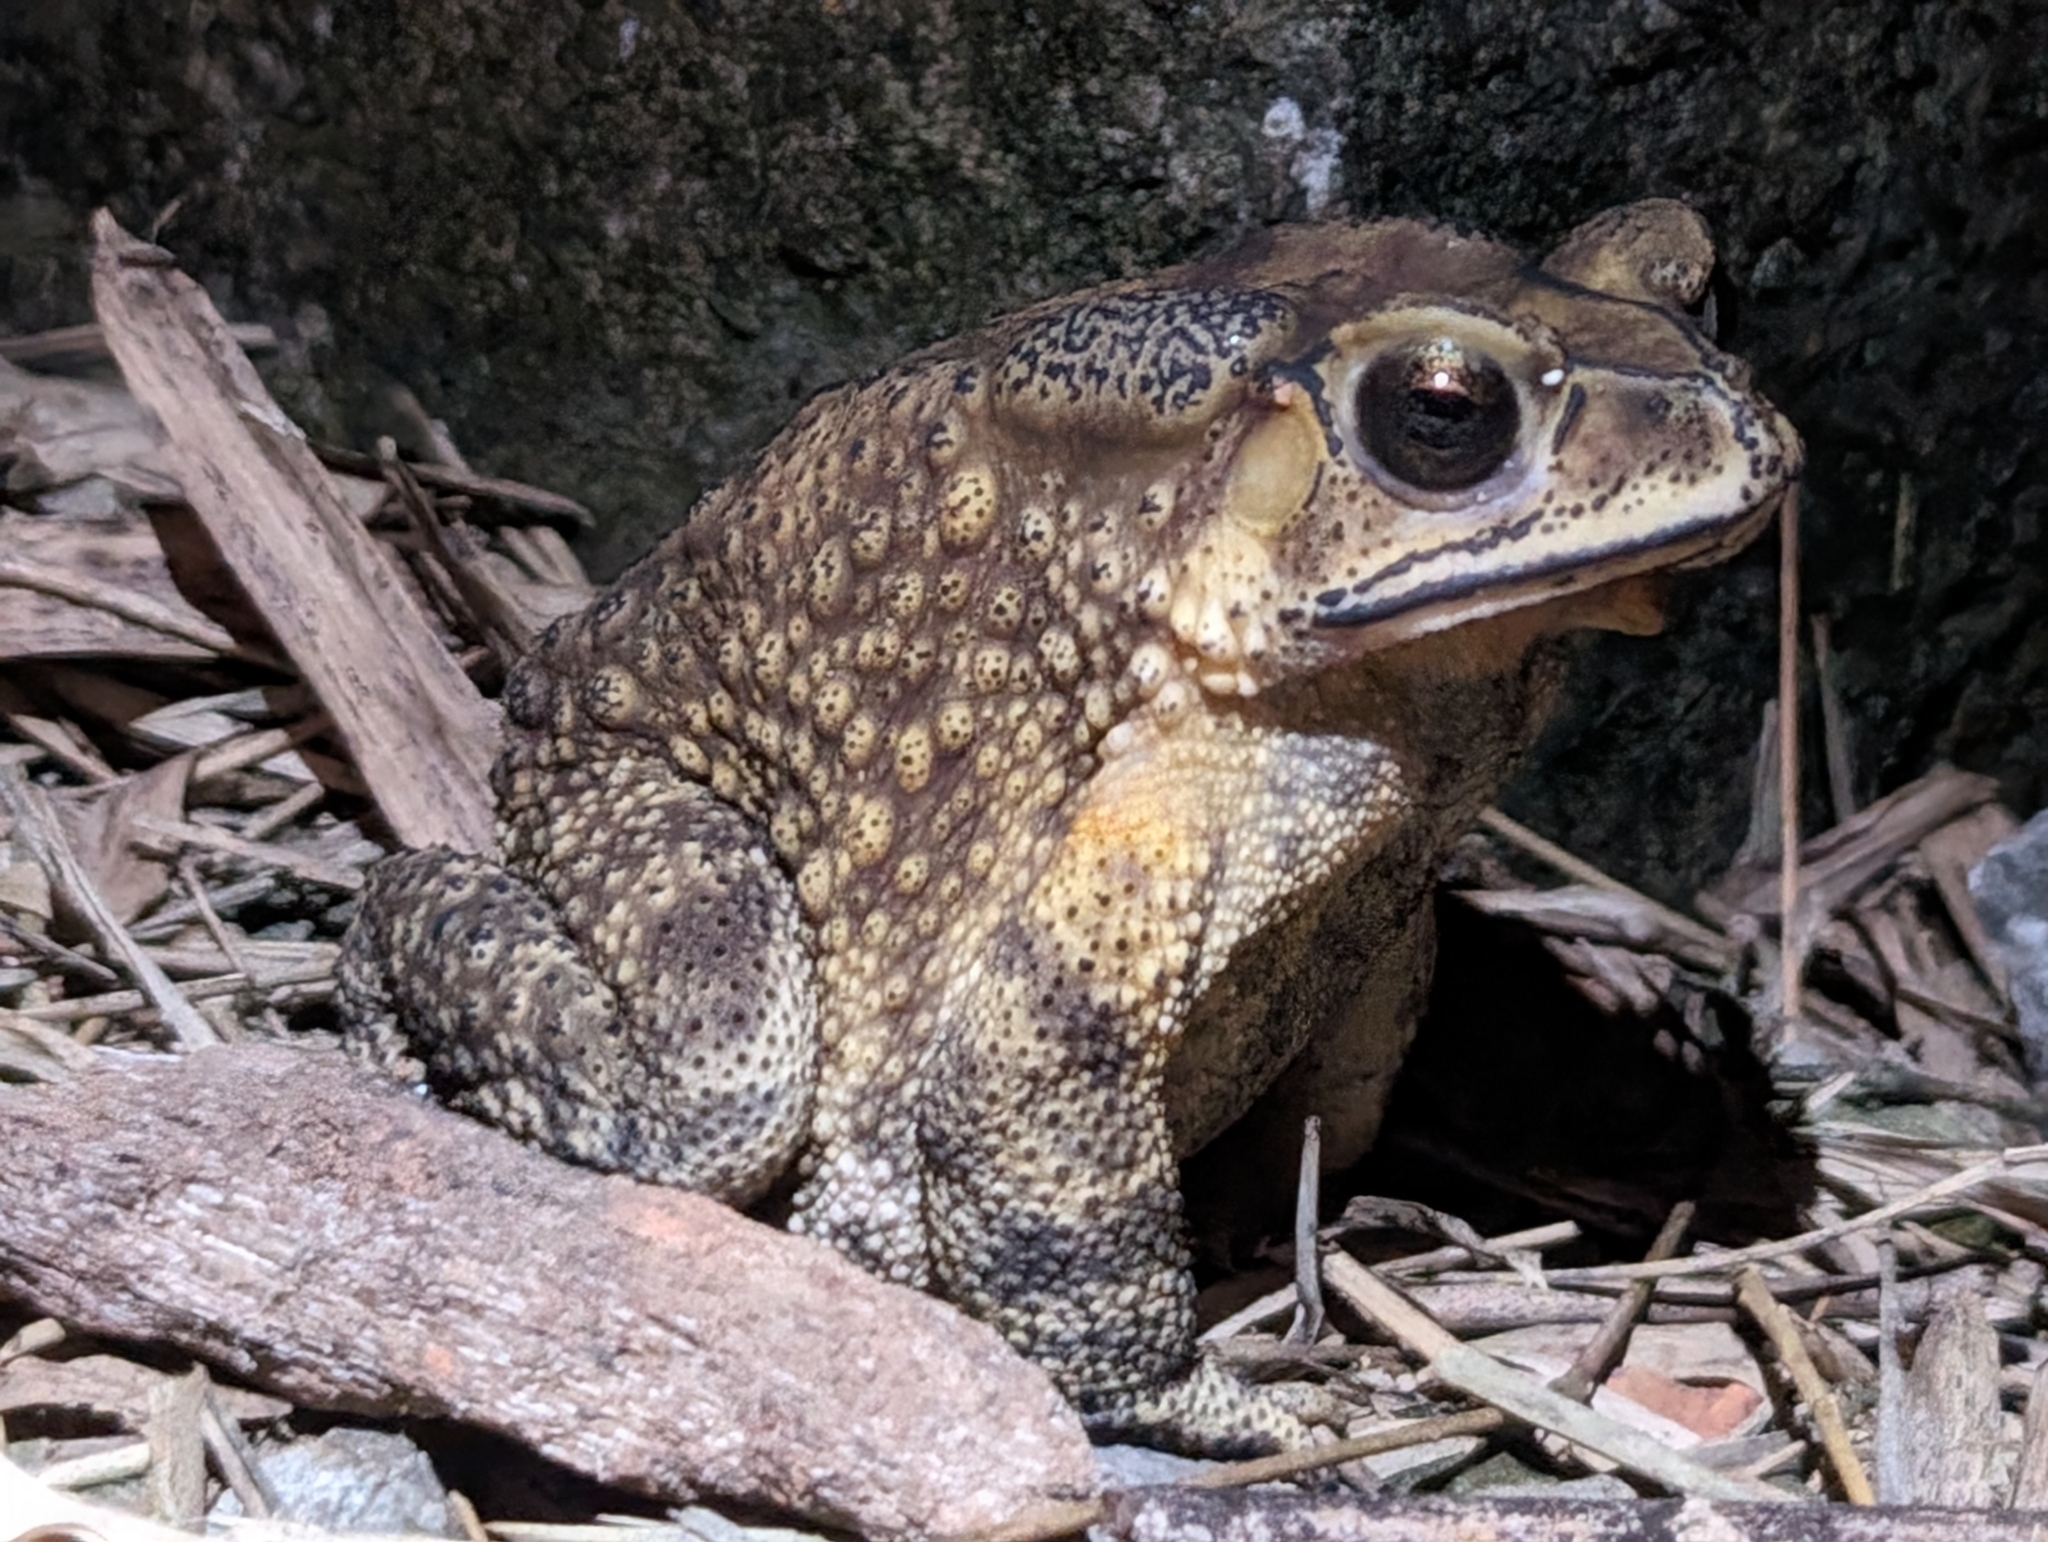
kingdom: Animalia
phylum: Chordata
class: Amphibia
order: Anura
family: Bufonidae
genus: Duttaphrynus
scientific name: Duttaphrynus melanostictus
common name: Common sunda toad
